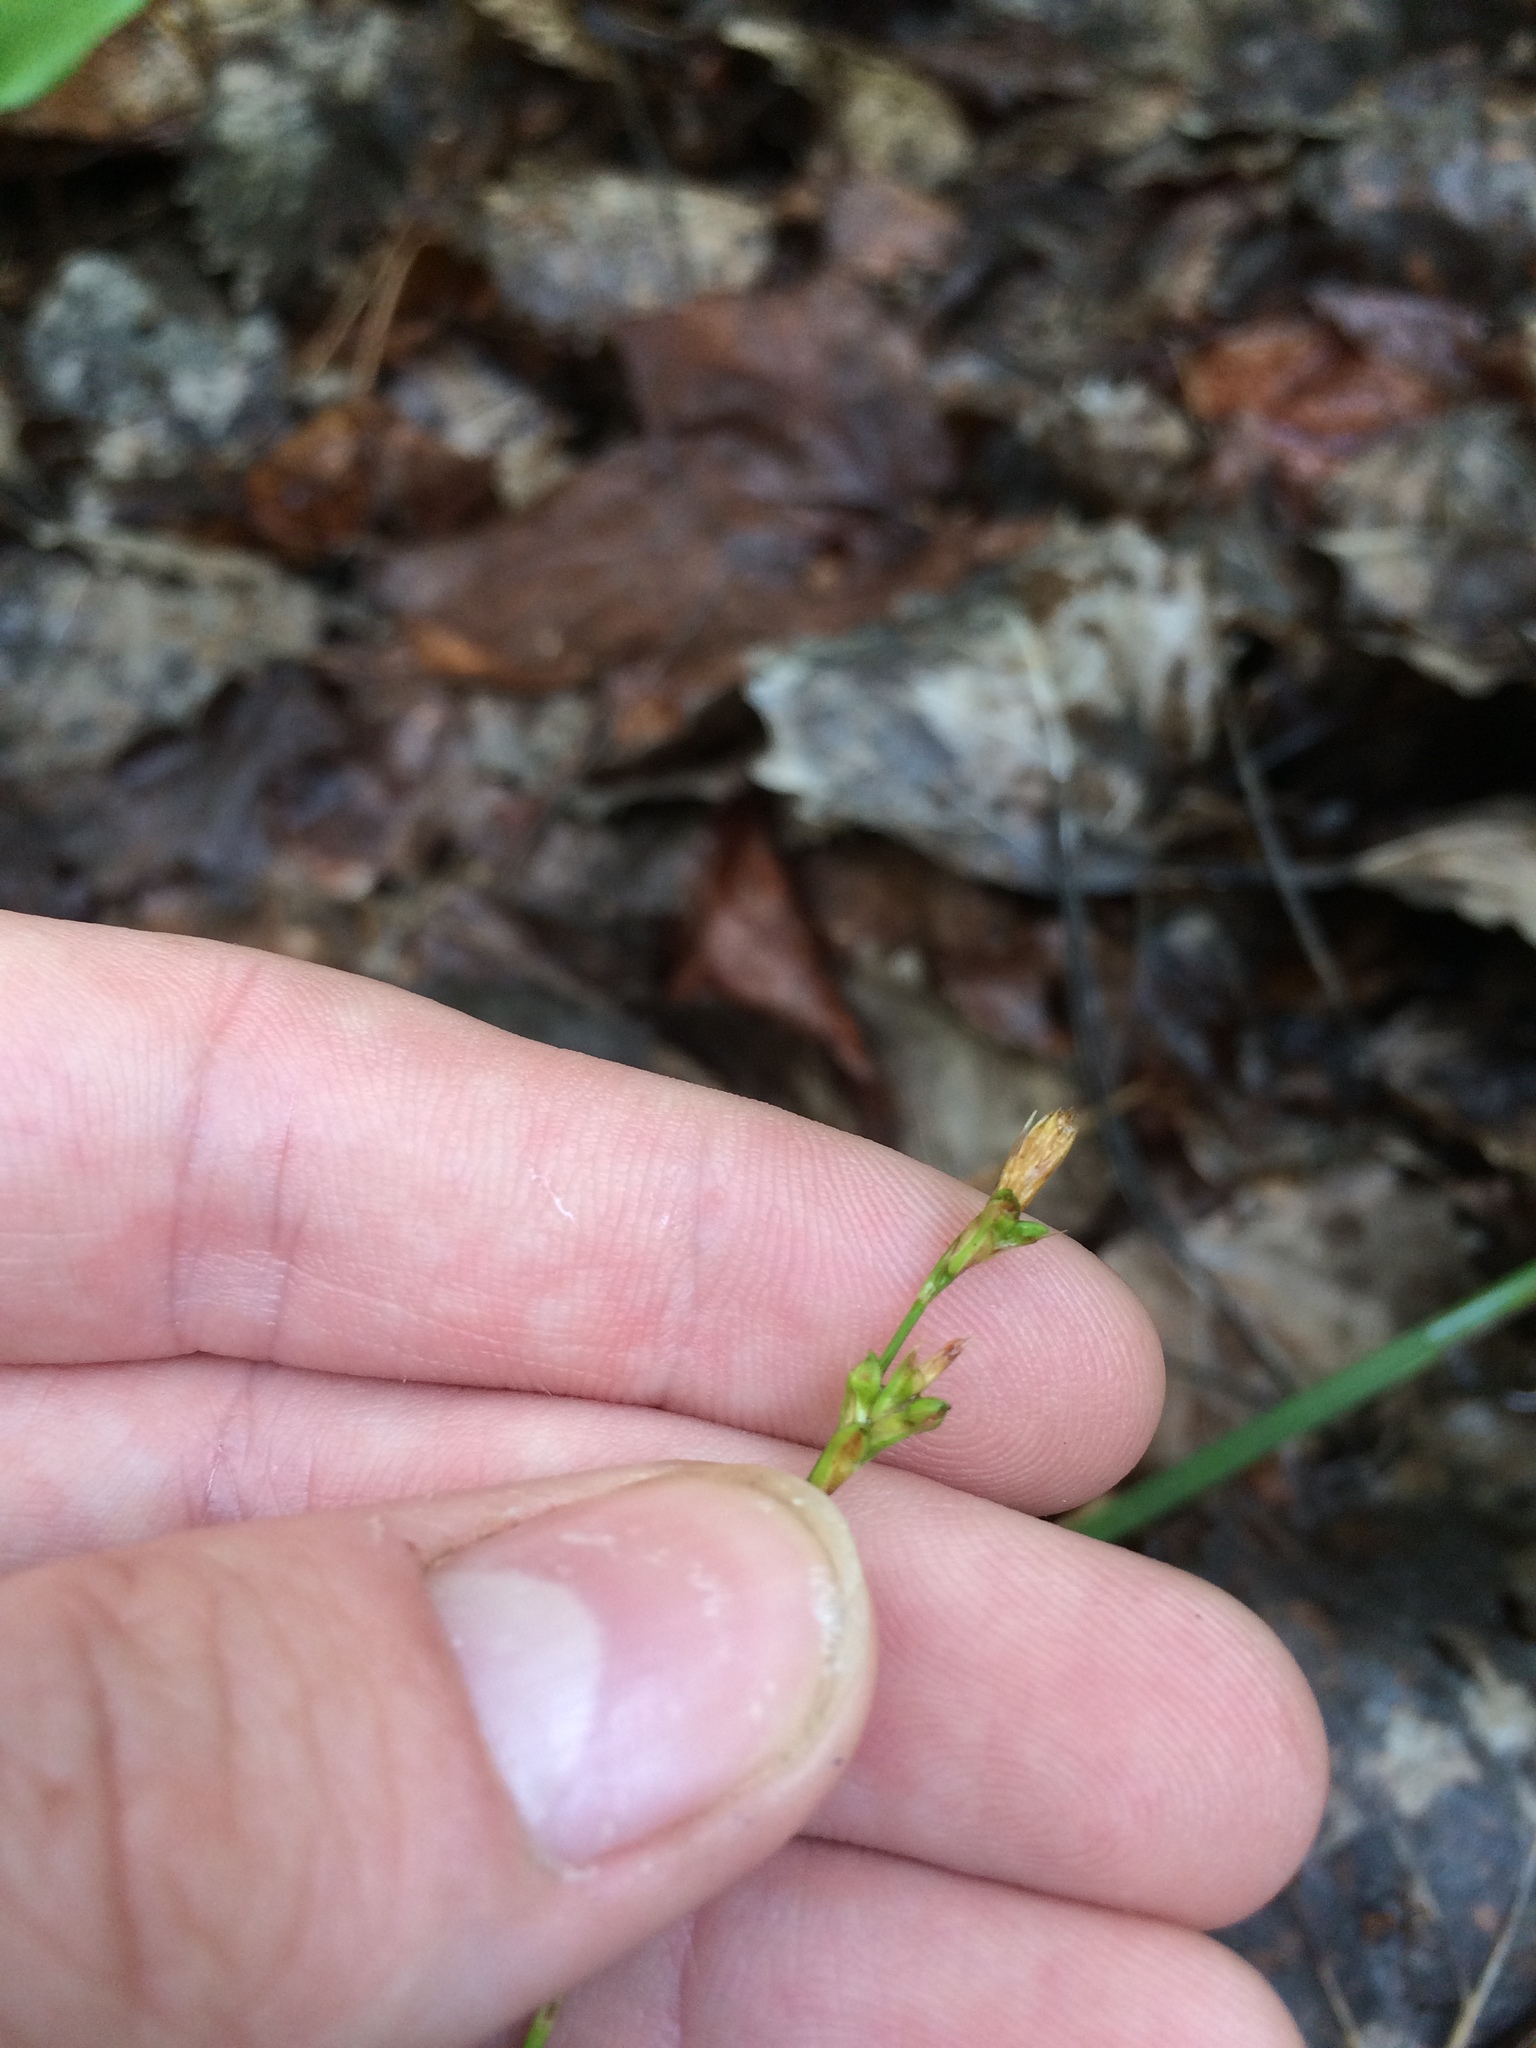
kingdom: Plantae
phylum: Tracheophyta
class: Liliopsida
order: Poales
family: Cyperaceae
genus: Carex
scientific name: Carex pedunculata
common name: Pedunculate sedge
